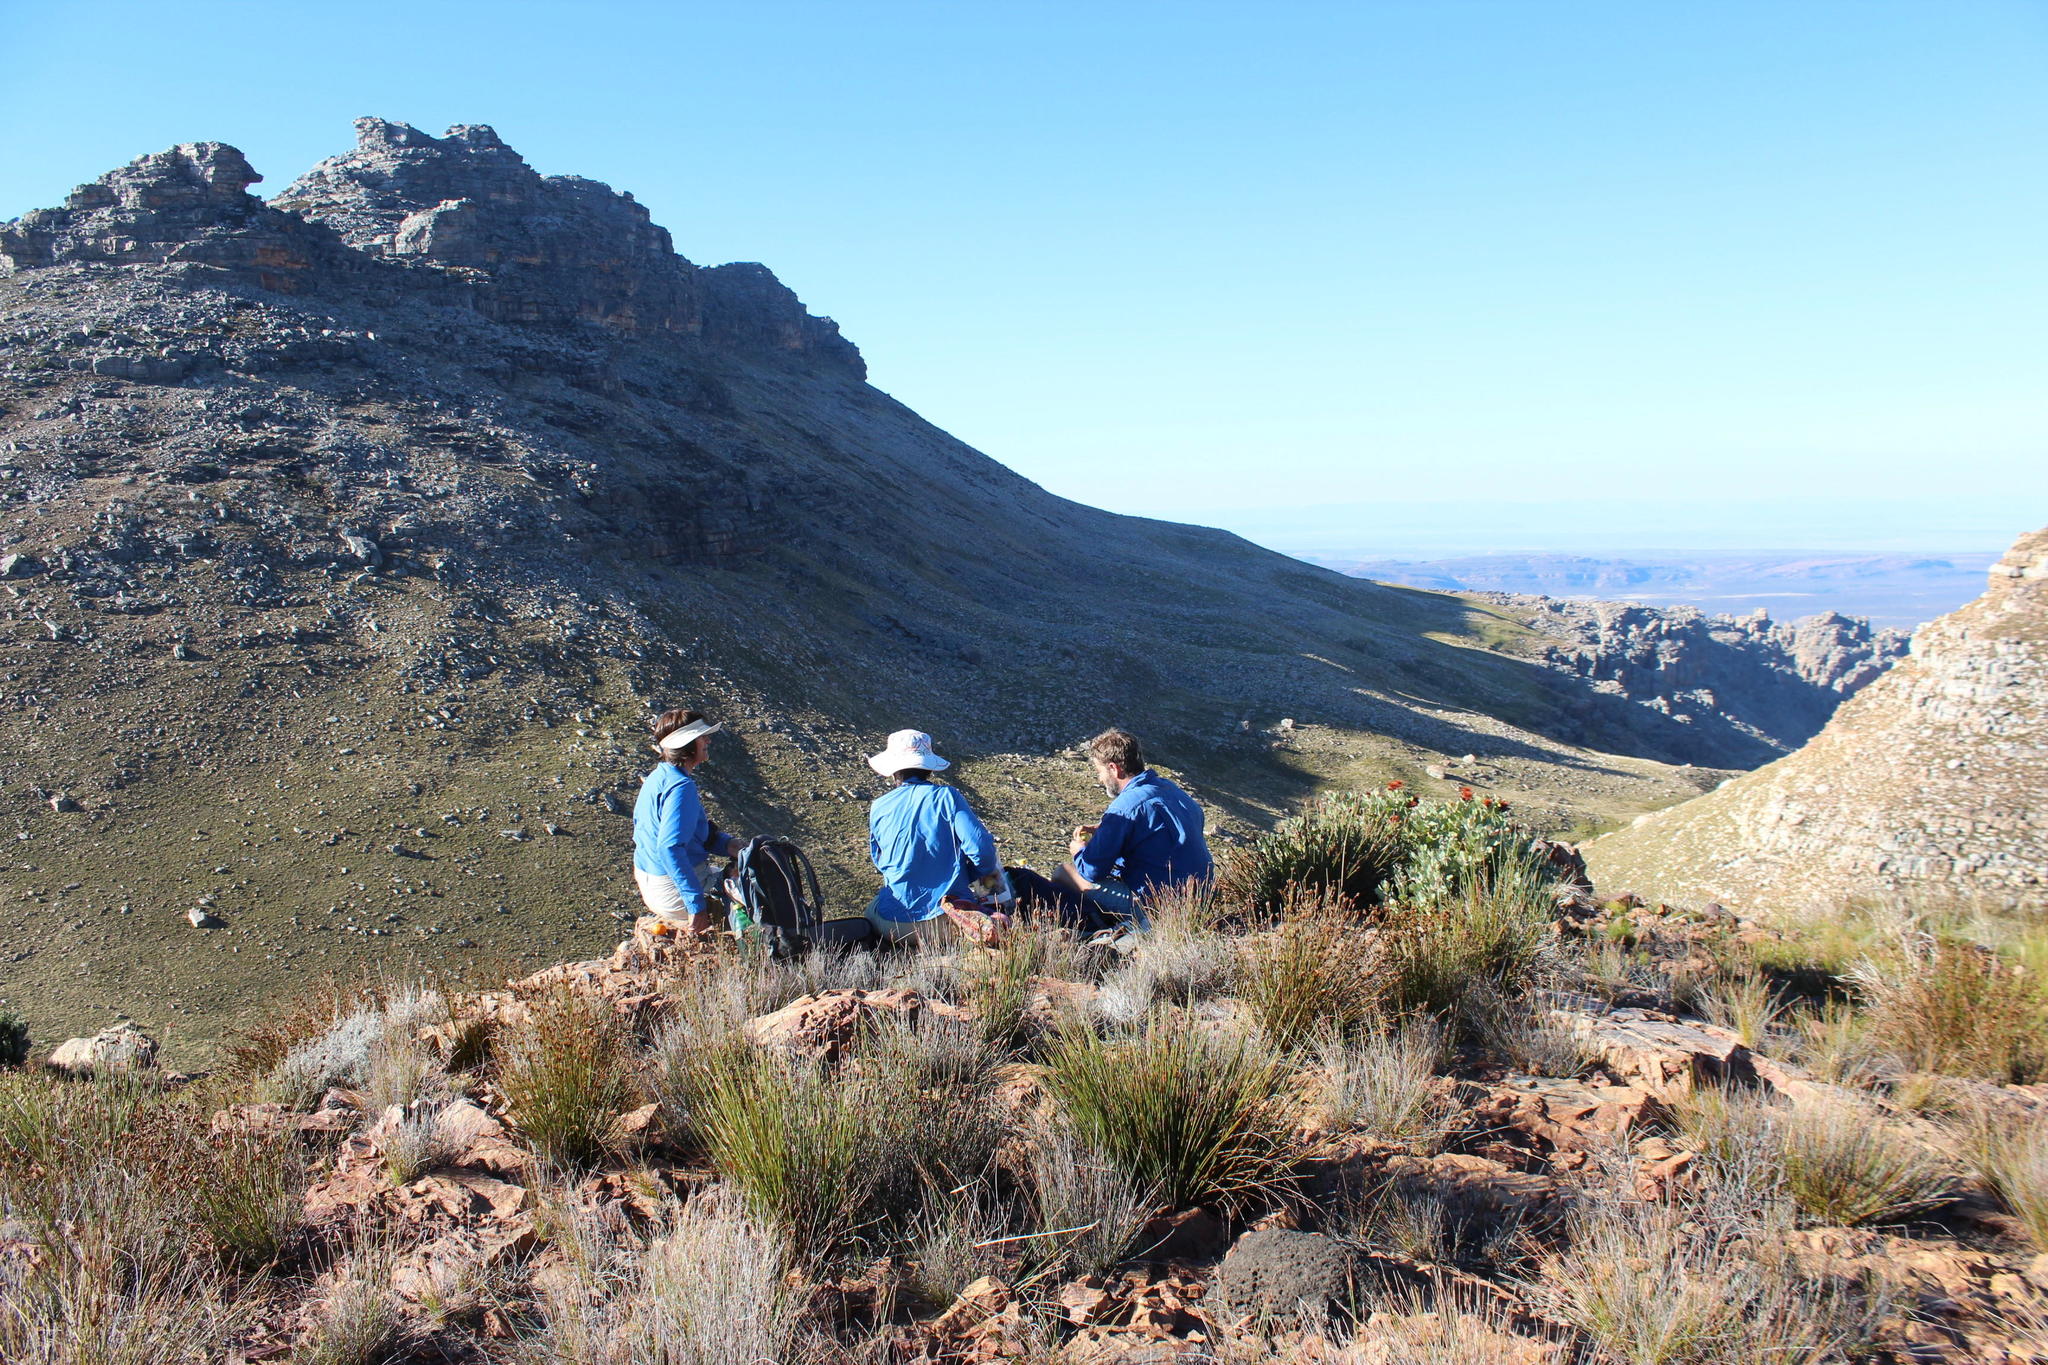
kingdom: Plantae
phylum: Tracheophyta
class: Magnoliopsida
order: Proteales
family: Proteaceae
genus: Protea
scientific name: Protea punctata
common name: Water sugarbush
